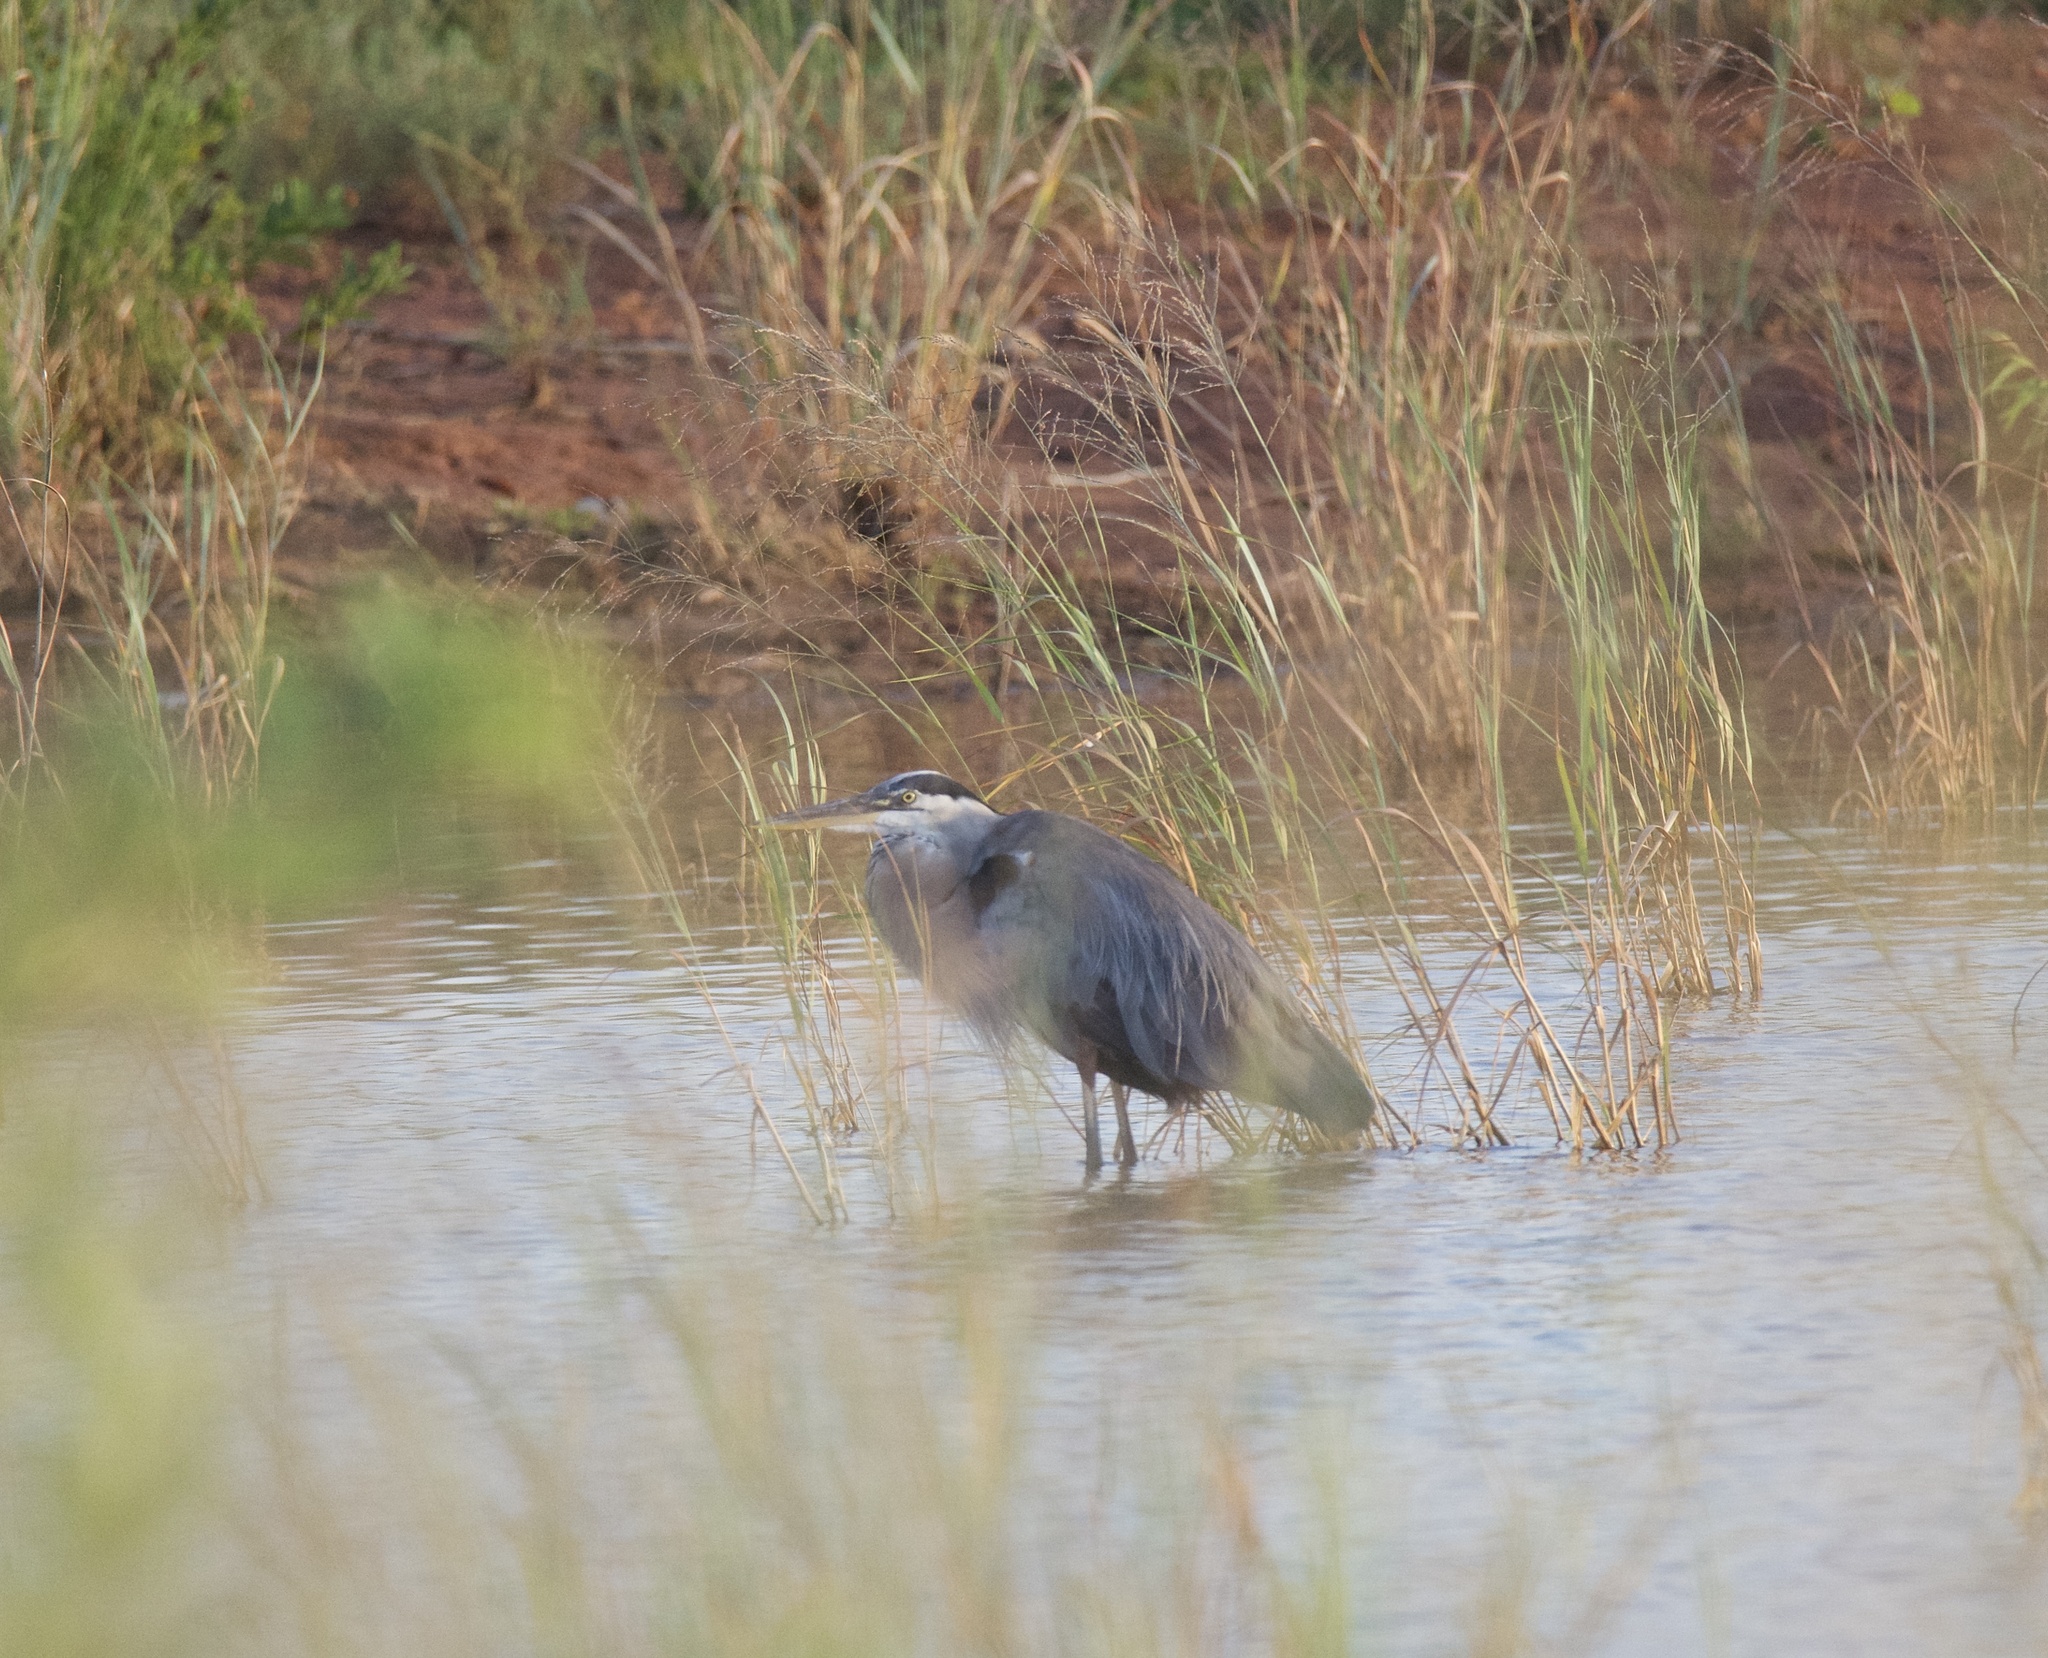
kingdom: Animalia
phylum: Chordata
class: Aves
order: Pelecaniformes
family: Ardeidae
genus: Ardea
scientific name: Ardea herodias
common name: Great blue heron
